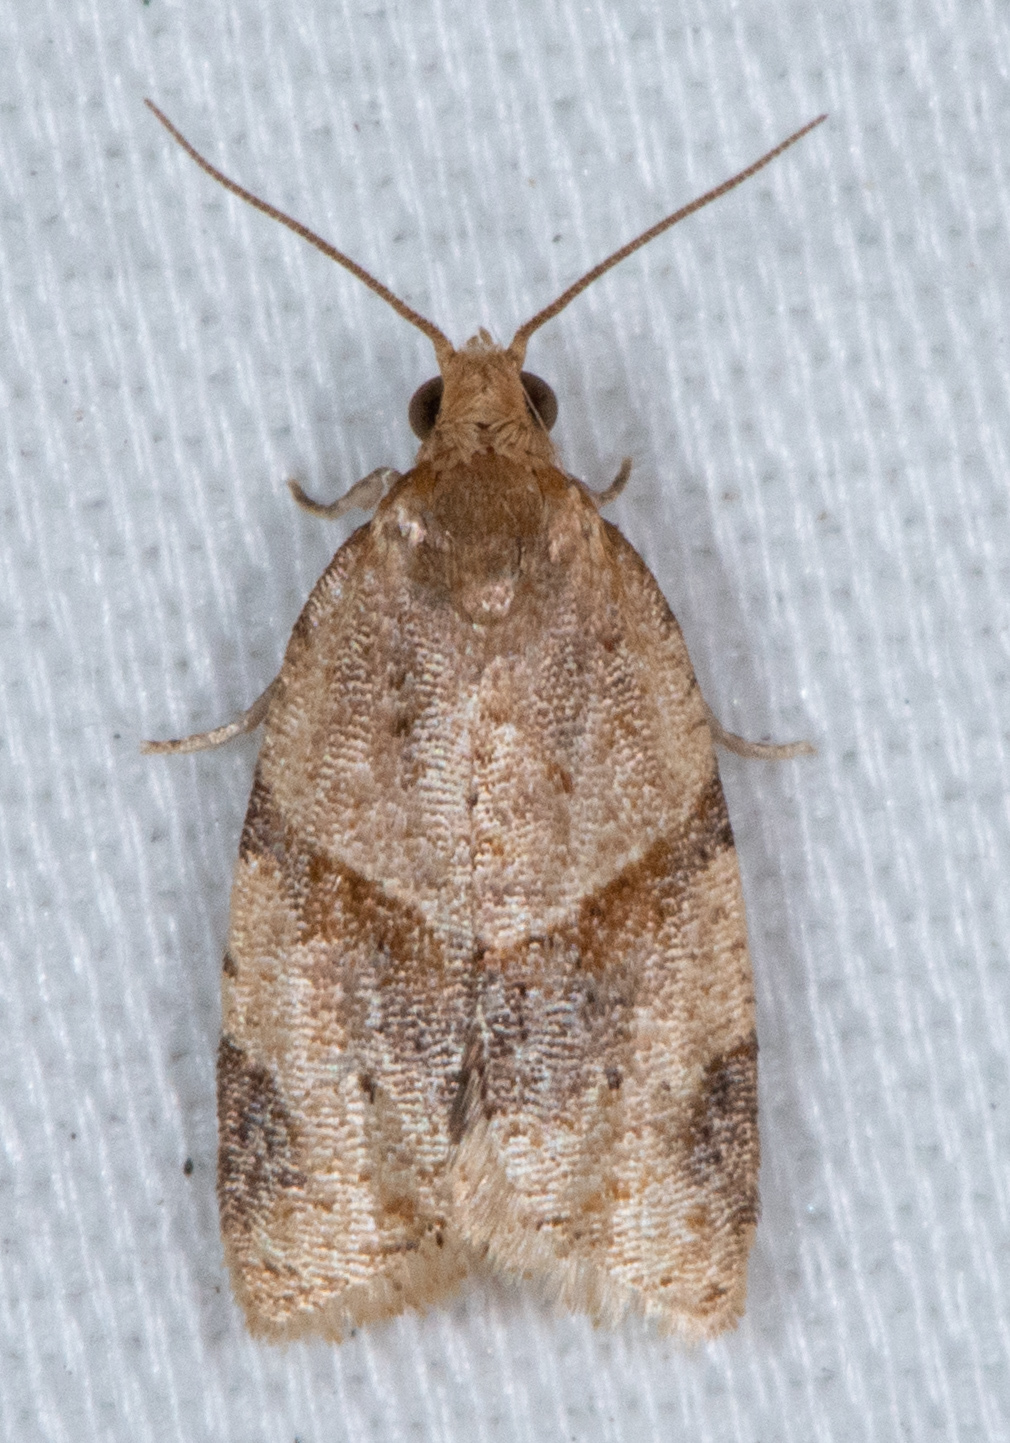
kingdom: Animalia
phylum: Arthropoda
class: Insecta
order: Lepidoptera
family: Tortricidae
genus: Clepsis
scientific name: Clepsis peritana
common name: Garden tortrix
